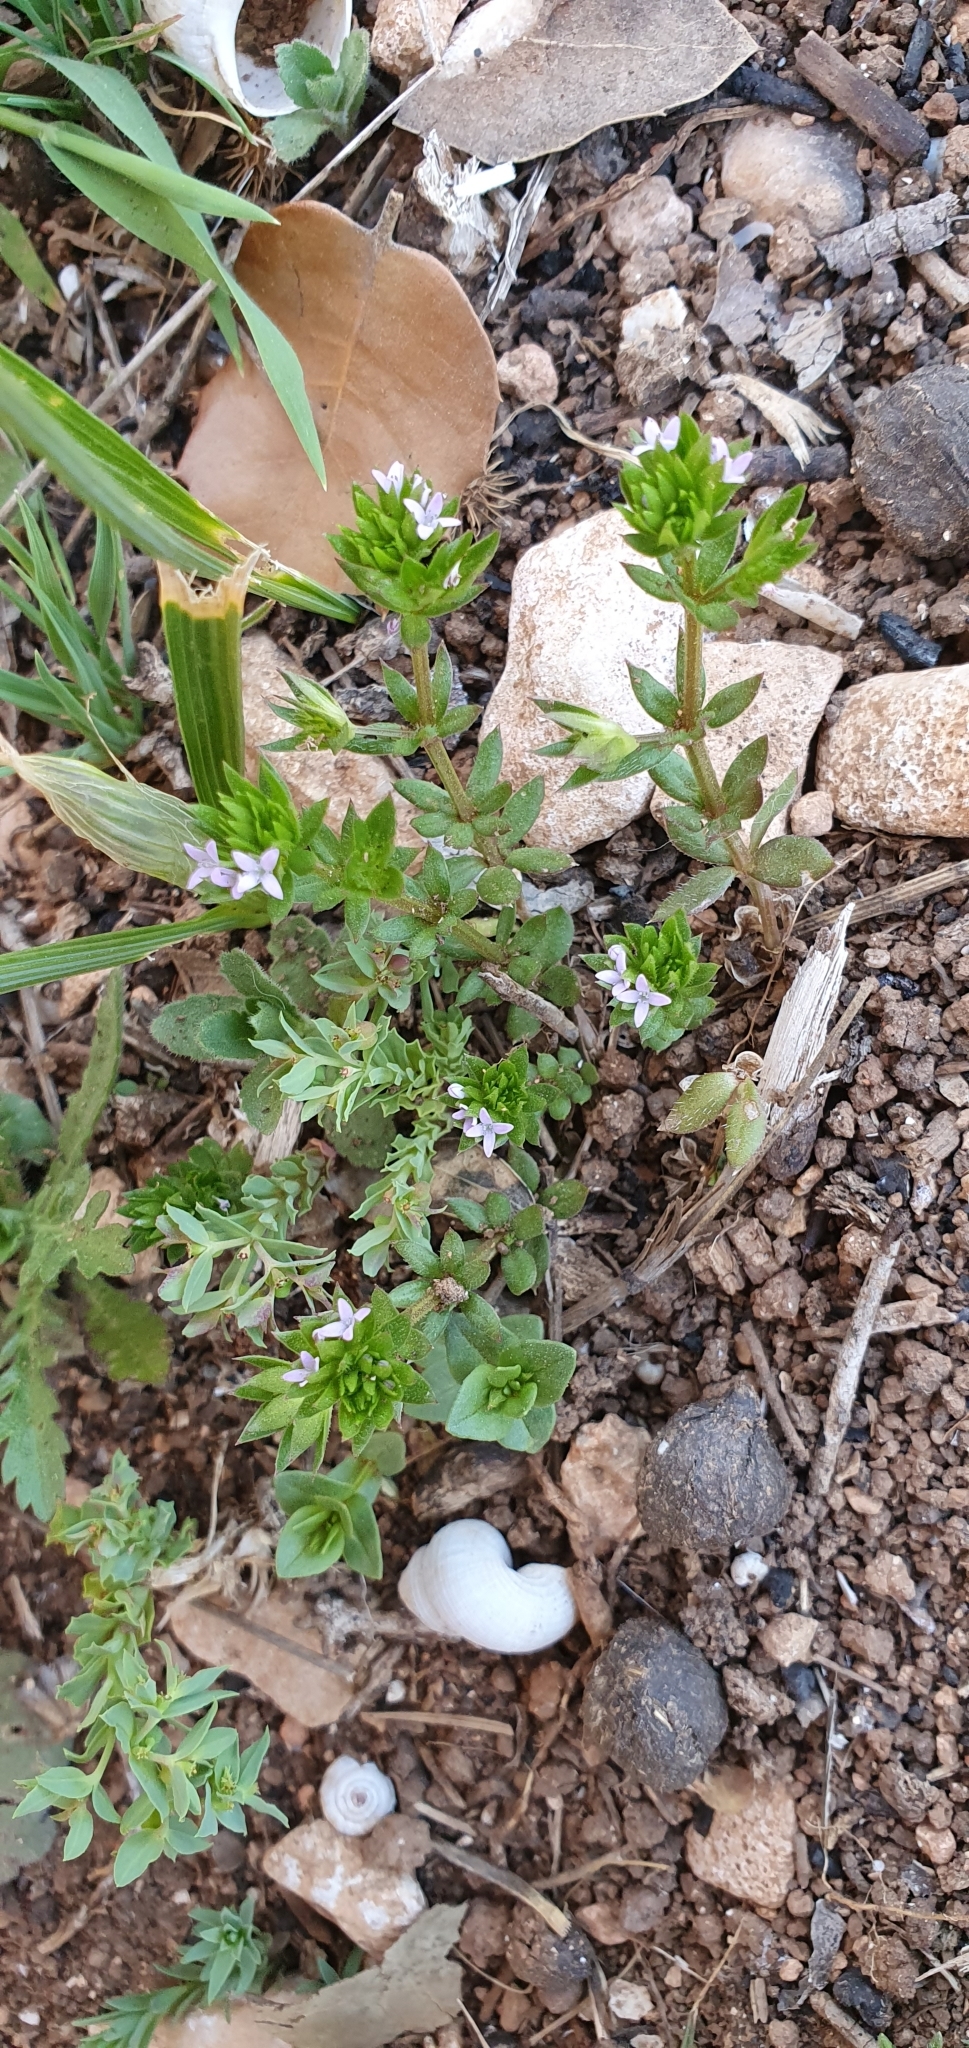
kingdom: Plantae
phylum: Tracheophyta
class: Magnoliopsida
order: Gentianales
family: Rubiaceae
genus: Sherardia
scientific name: Sherardia arvensis
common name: Field madder
